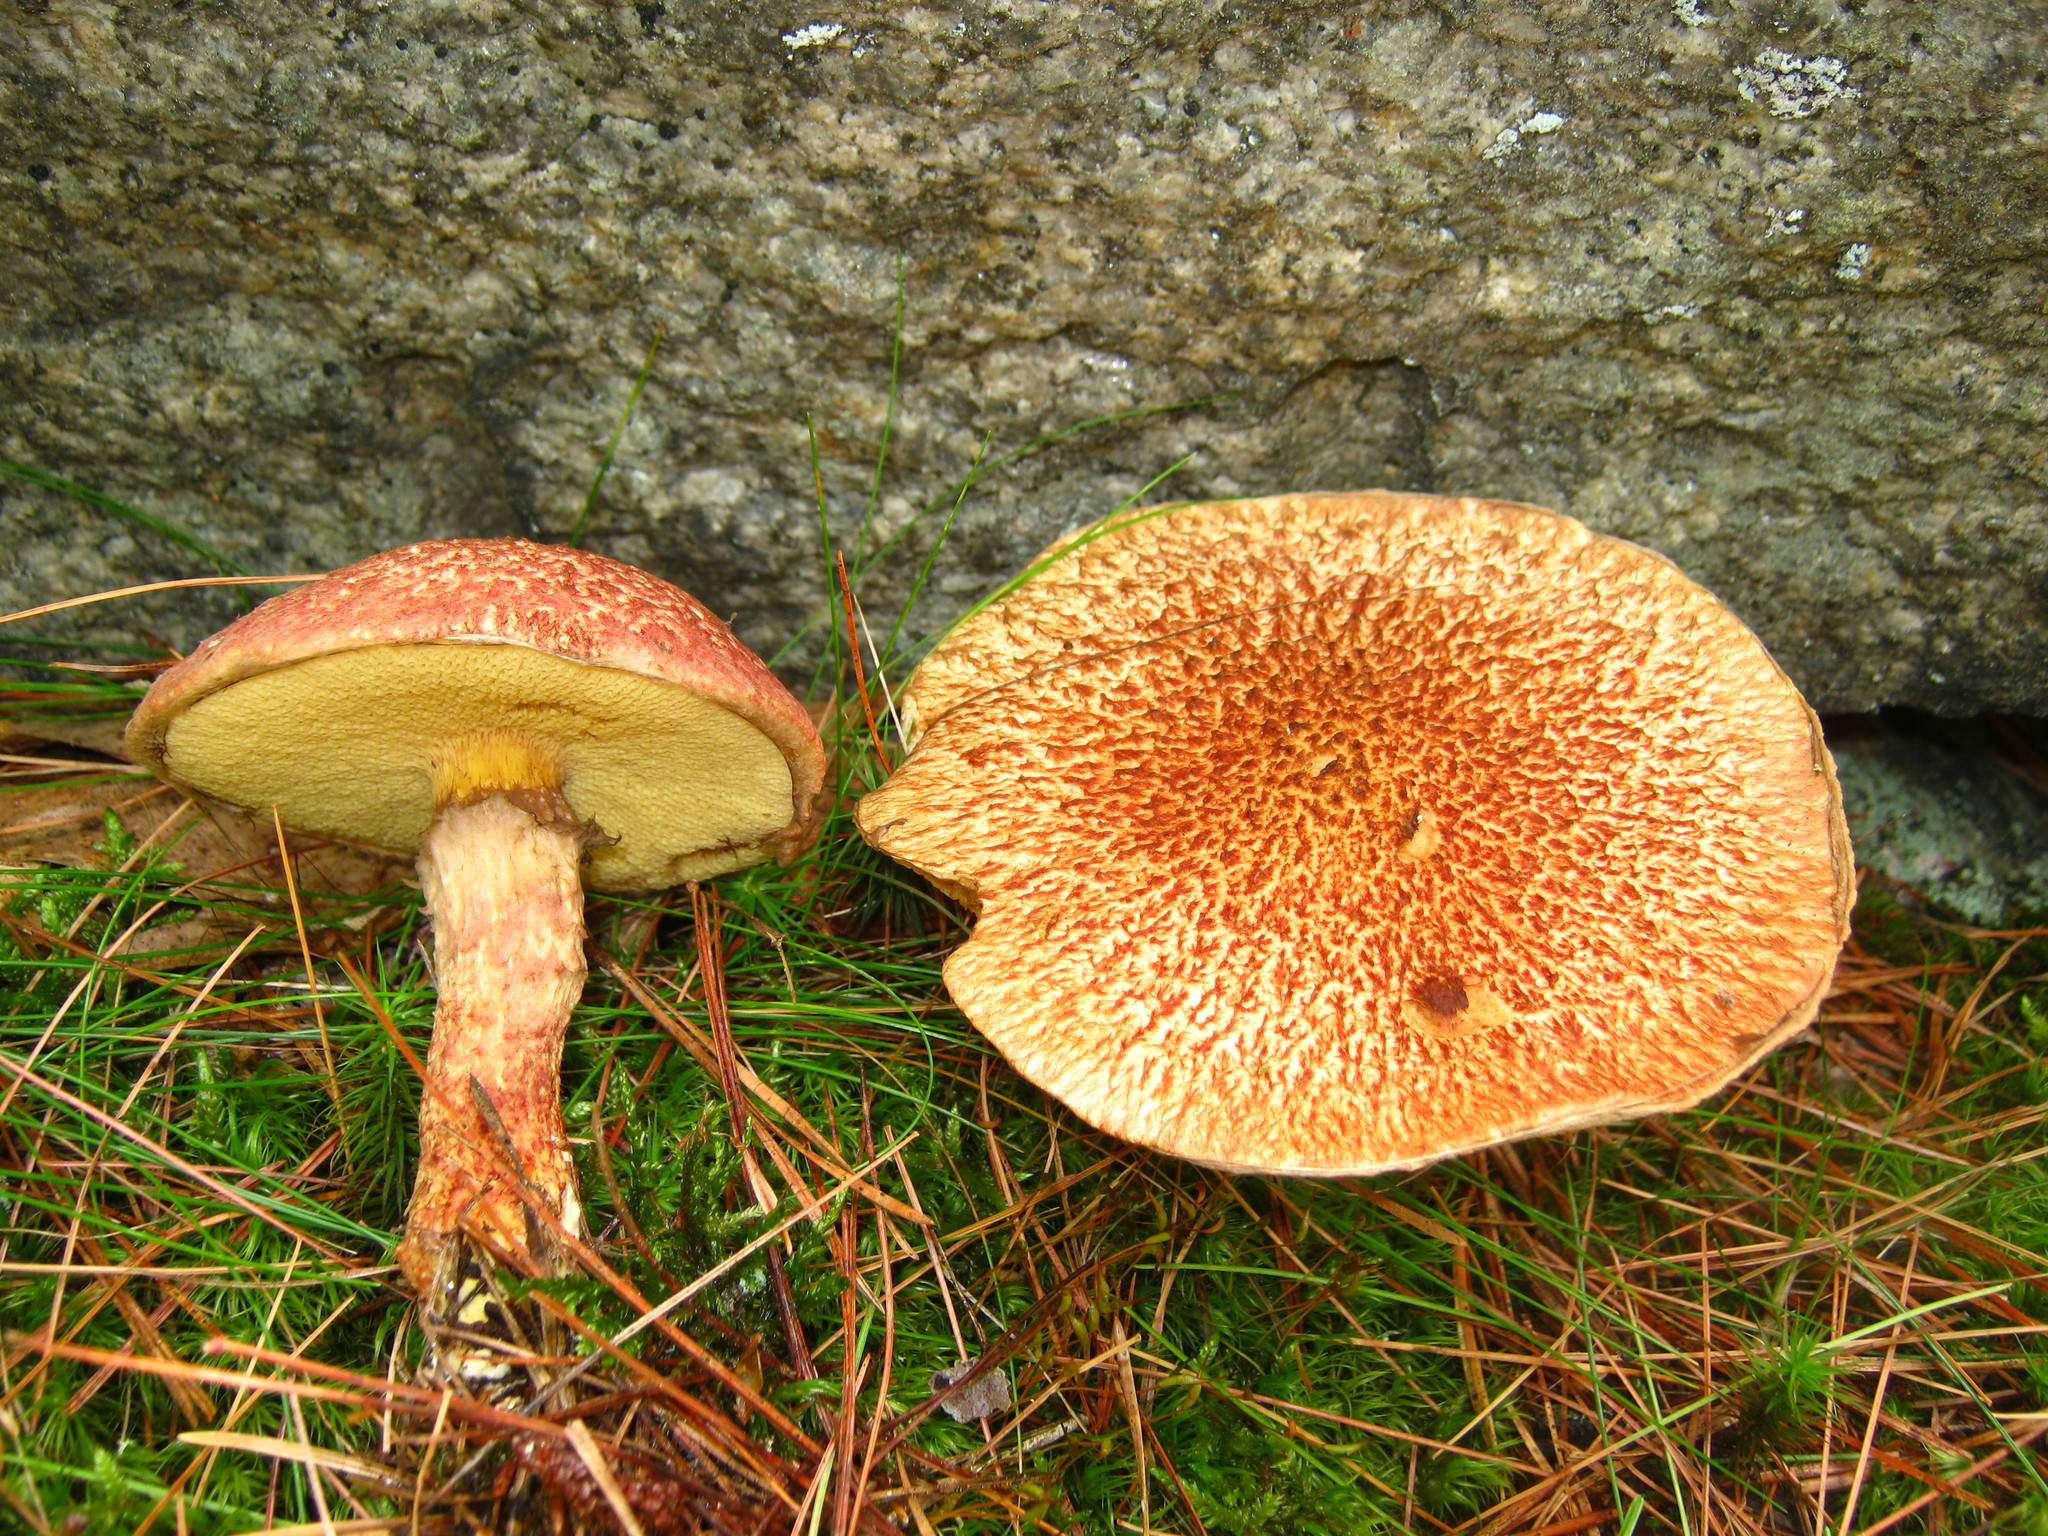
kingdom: Fungi
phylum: Basidiomycota
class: Agaricomycetes
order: Boletales
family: Suillaceae
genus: Suillus
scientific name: Suillus spraguei
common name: Painted suillus
